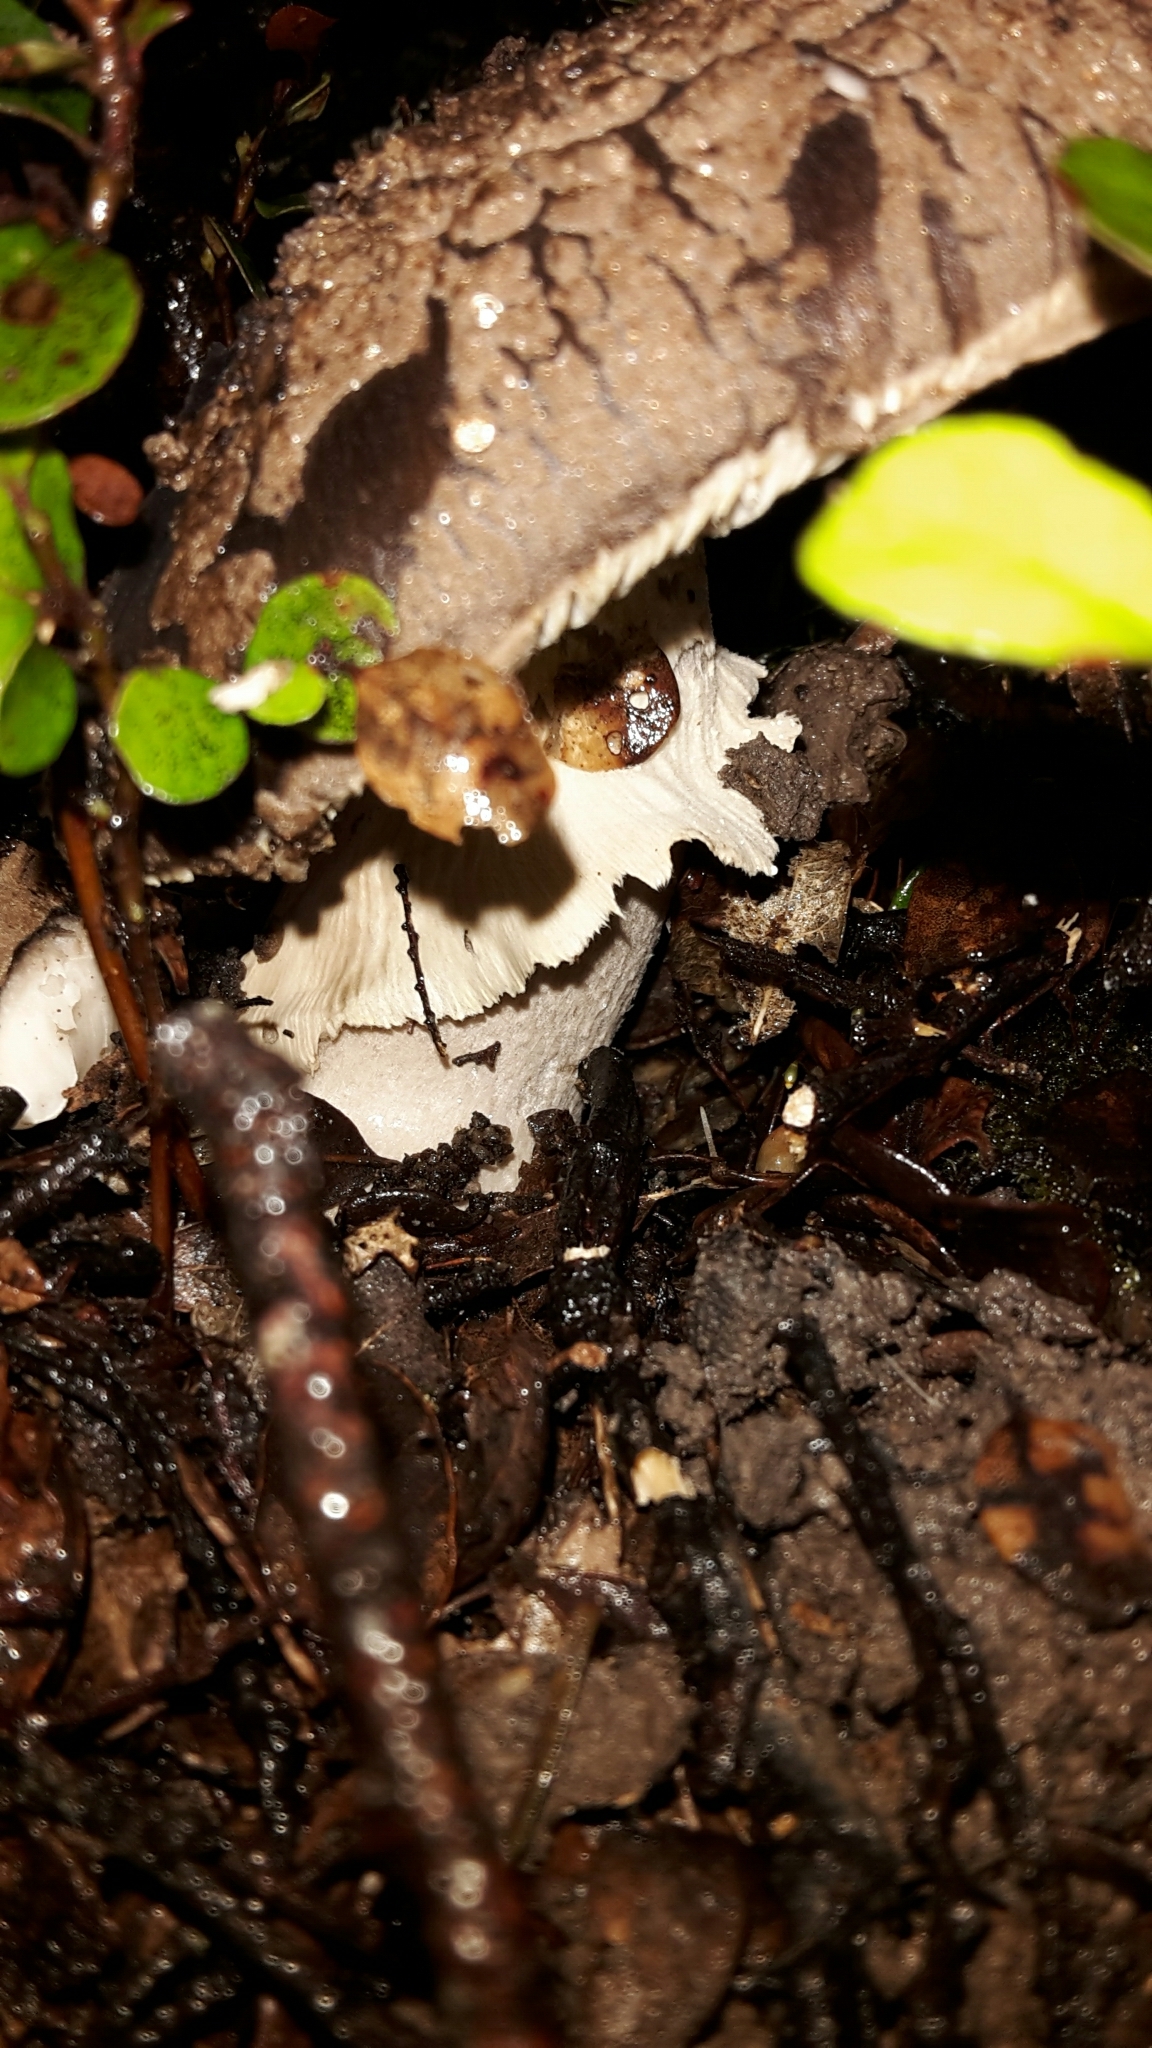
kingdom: Fungi
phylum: Basidiomycota
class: Agaricomycetes
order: Agaricales
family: Amanitaceae
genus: Amanita
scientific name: Amanita nothofagi
